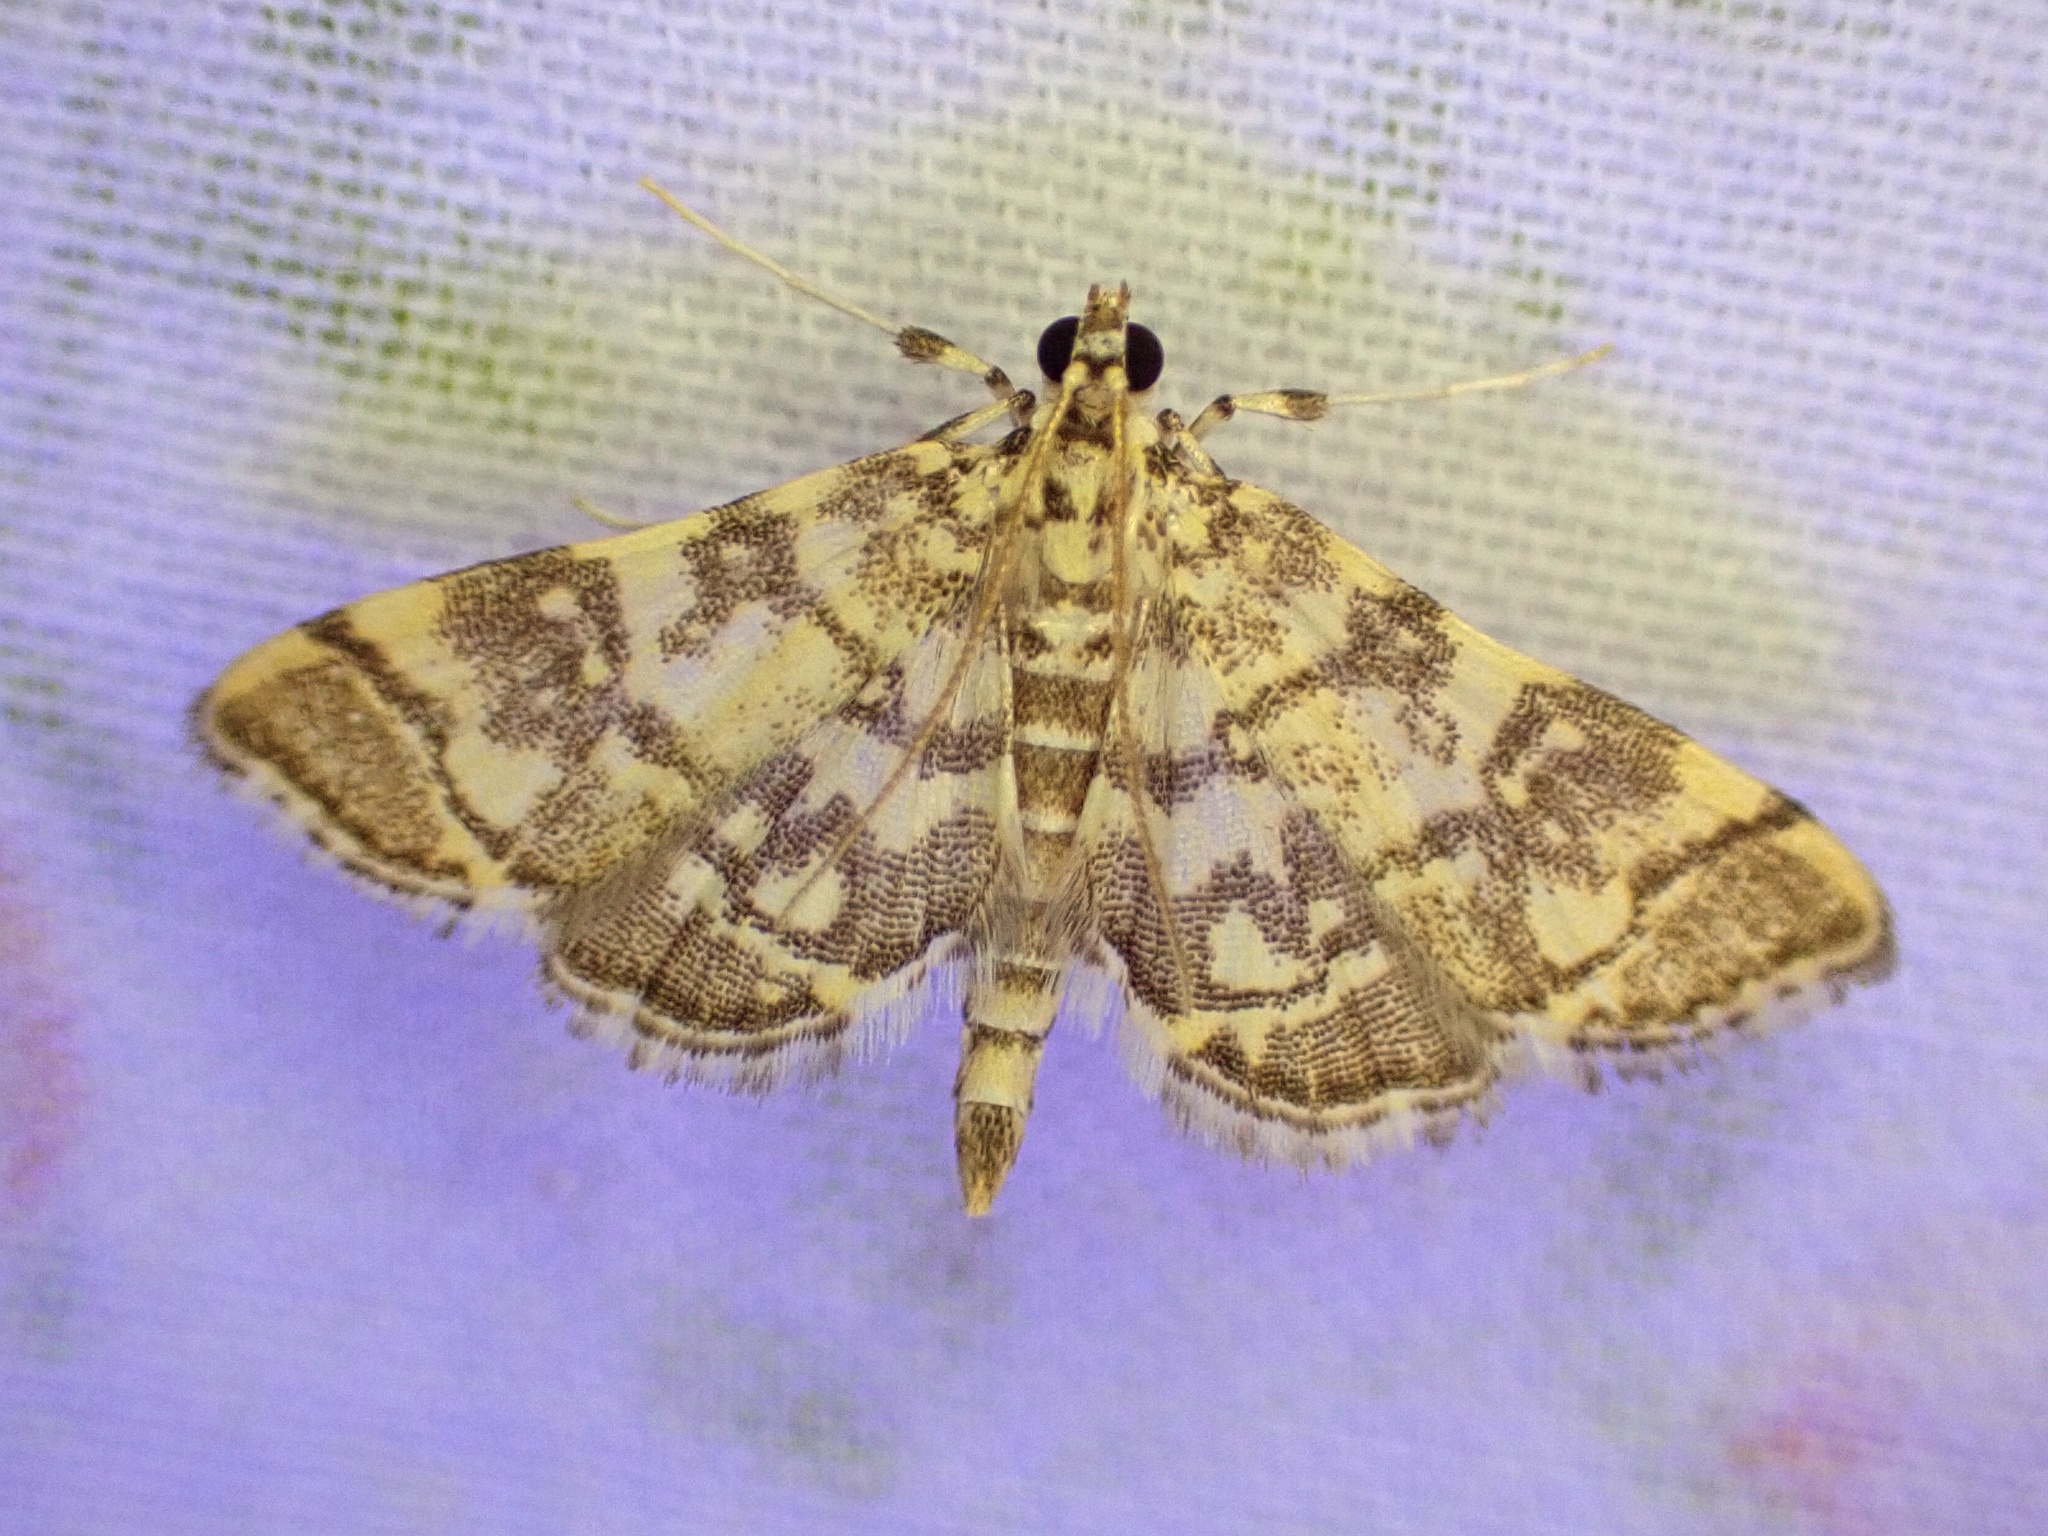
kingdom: Animalia
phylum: Arthropoda
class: Insecta
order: Lepidoptera
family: Crambidae
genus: Apogeshna
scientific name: Apogeshna stenialis
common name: Checkered apogeshna moth
